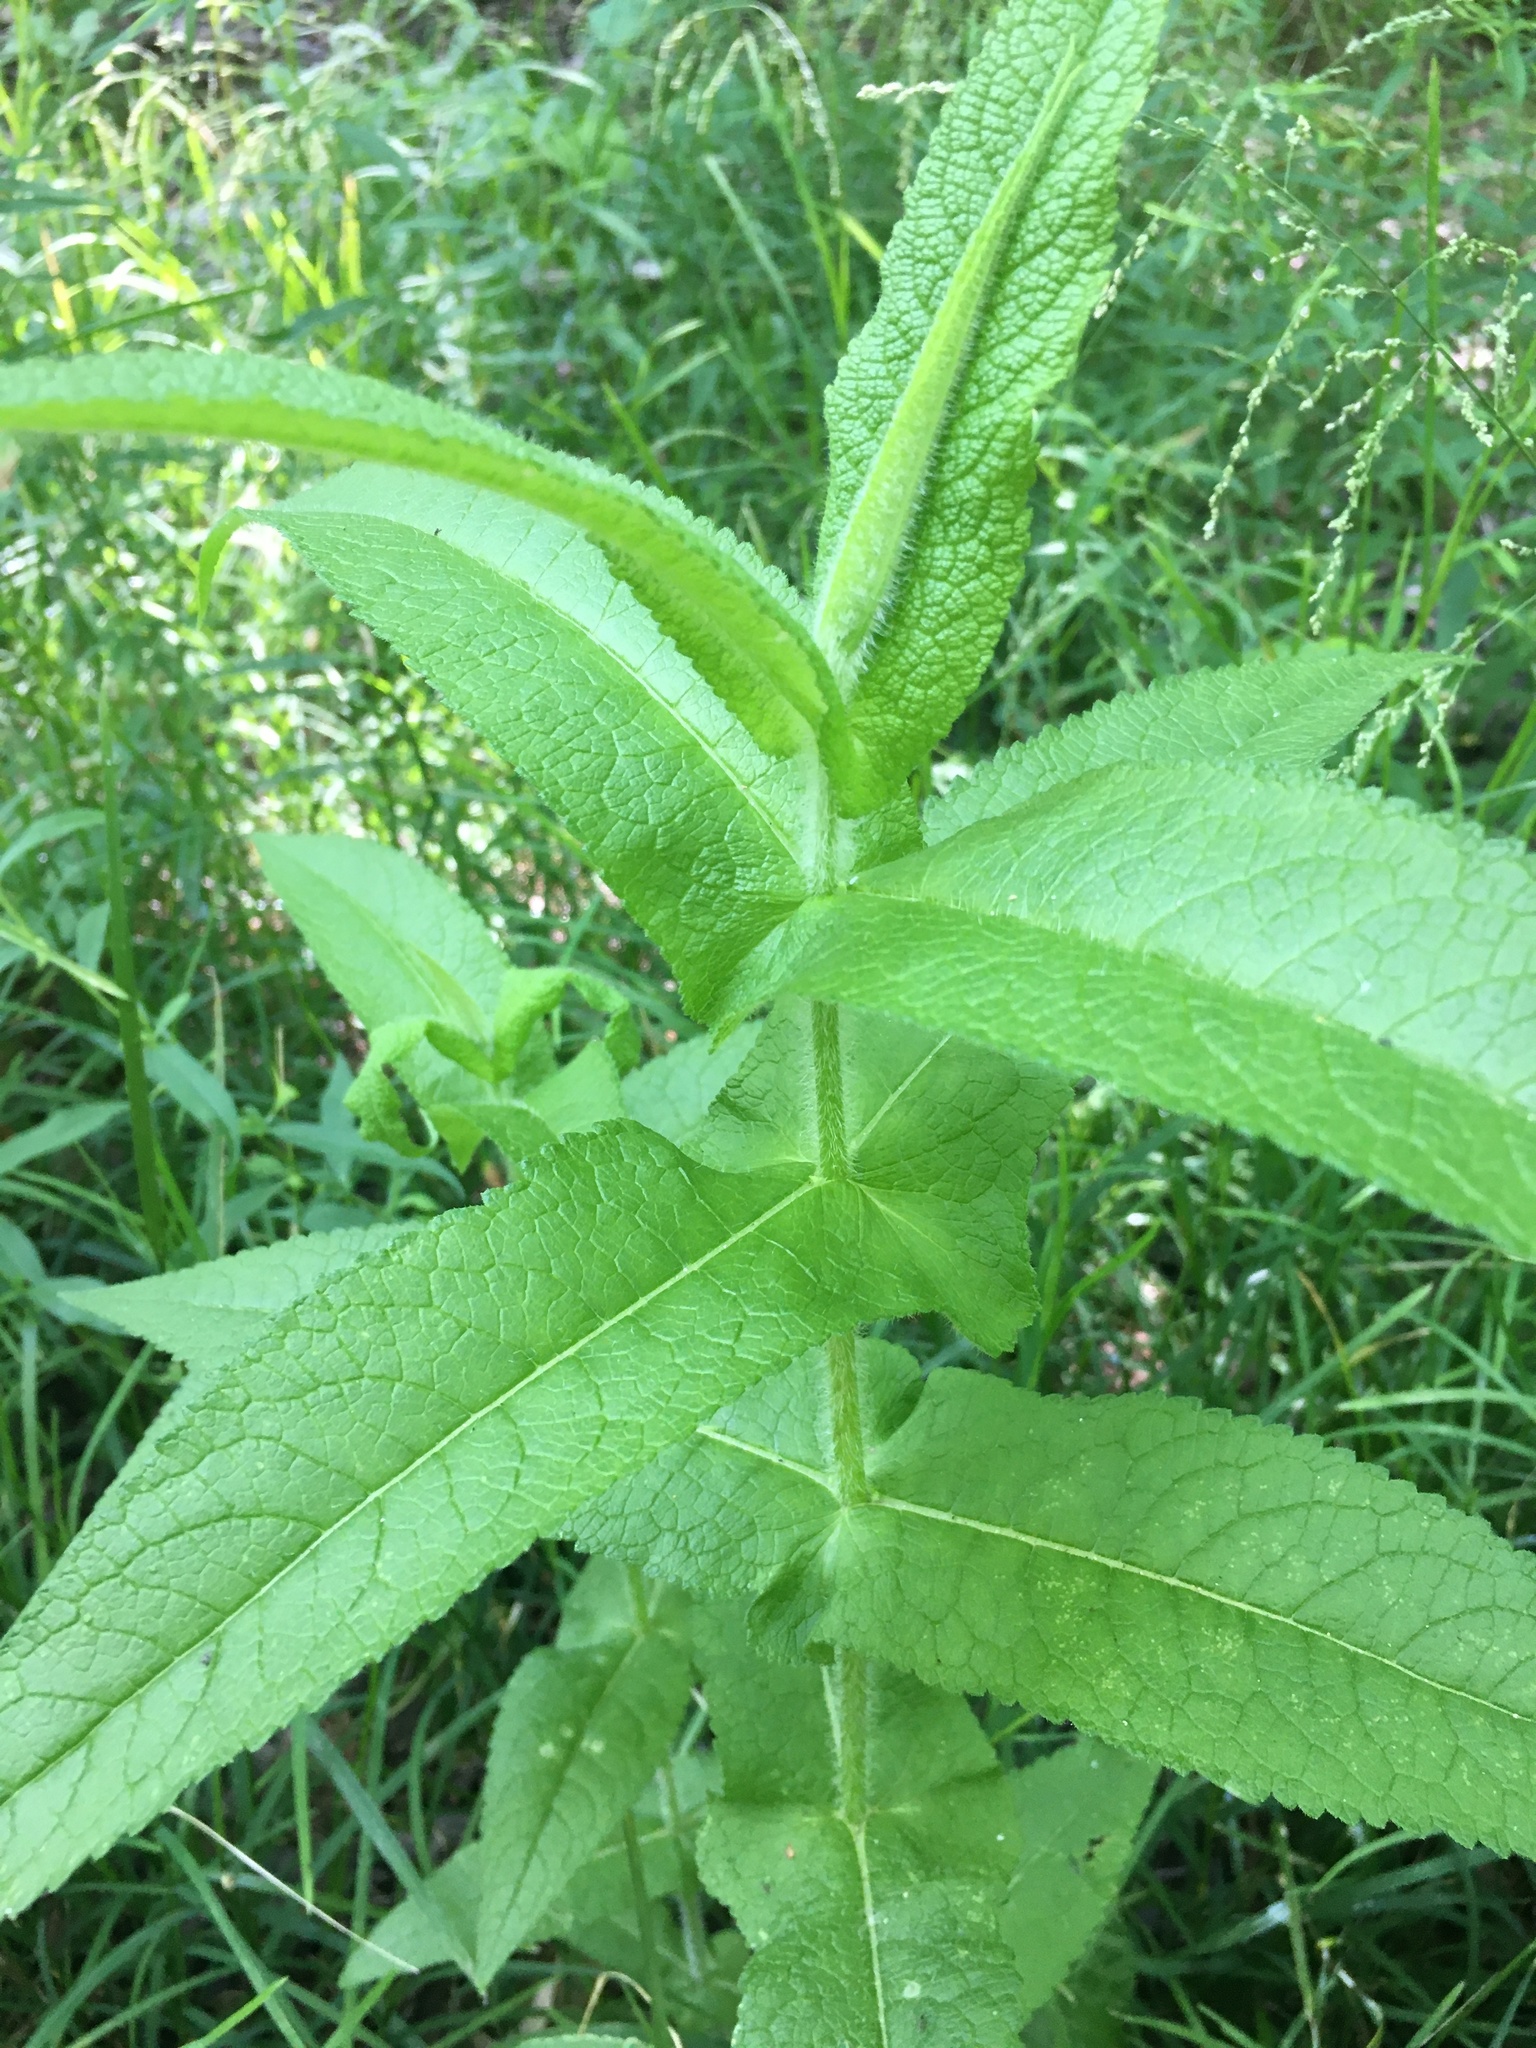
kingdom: Plantae
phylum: Tracheophyta
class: Magnoliopsida
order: Asterales
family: Asteraceae
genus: Eupatorium
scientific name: Eupatorium perfoliatum
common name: Boneset
